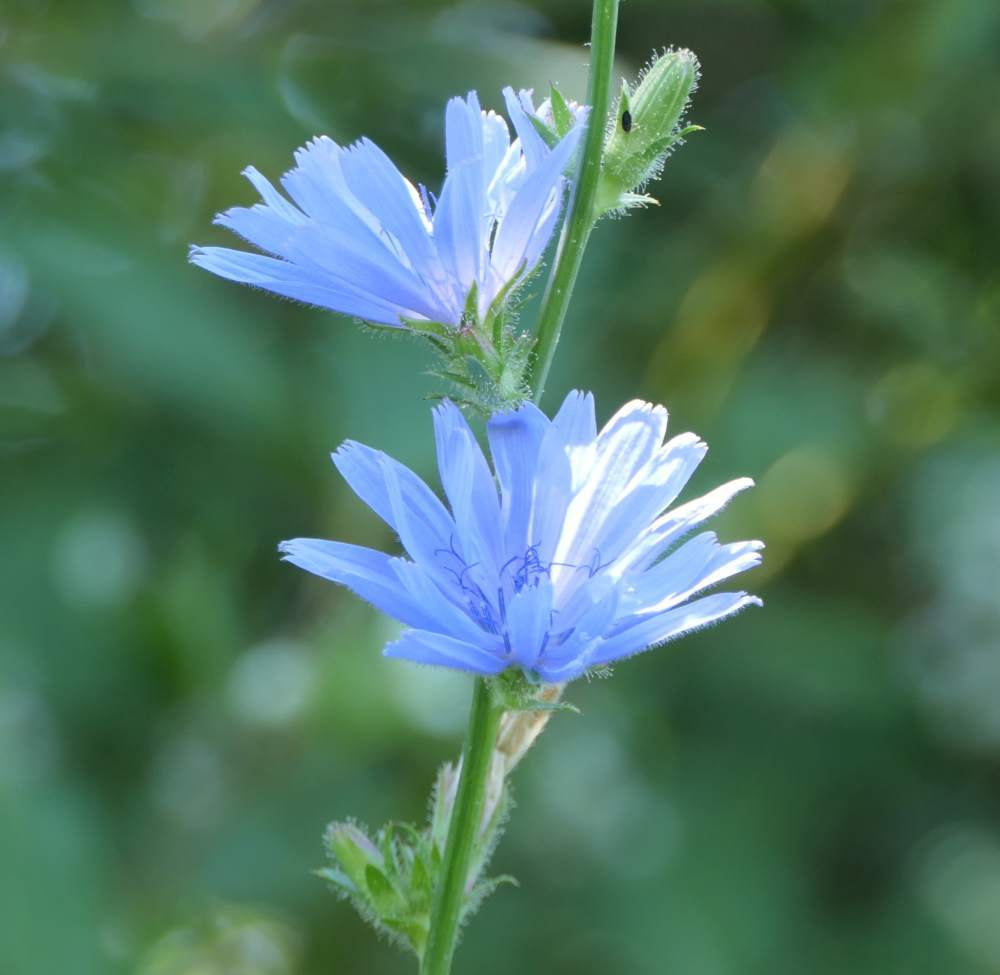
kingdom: Plantae
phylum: Tracheophyta
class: Magnoliopsida
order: Asterales
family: Asteraceae
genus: Cichorium
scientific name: Cichorium intybus
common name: Chicory
